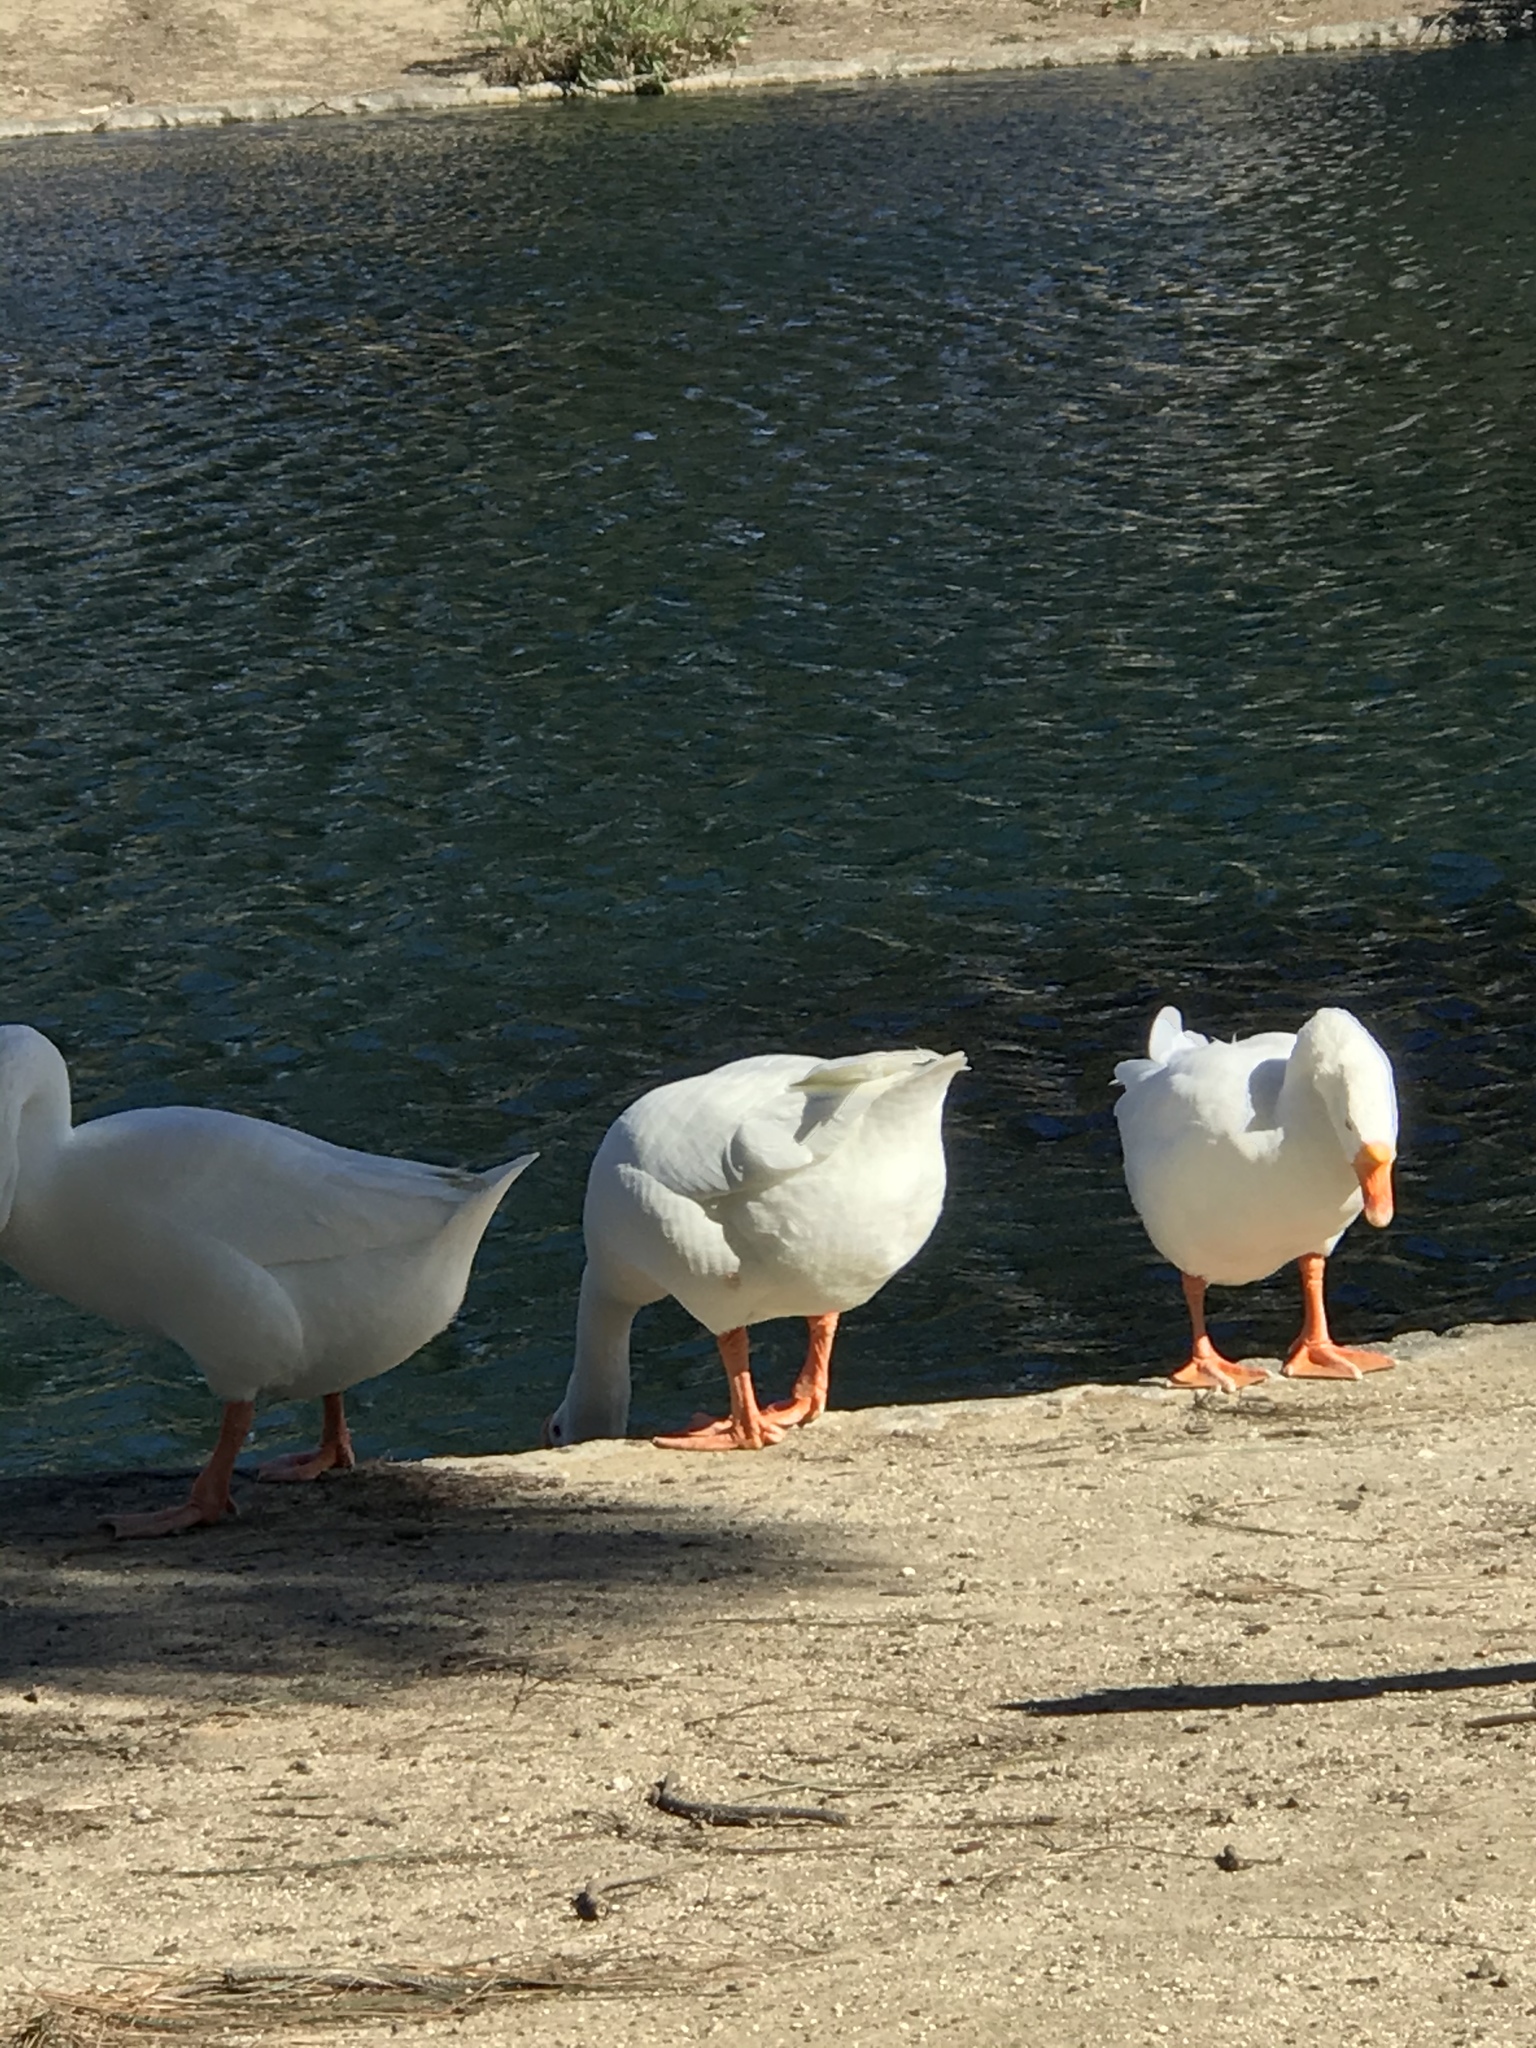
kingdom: Animalia
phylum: Chordata
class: Aves
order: Anseriformes
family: Anatidae
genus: Anser
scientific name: Anser cygnoides
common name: Swan goose
